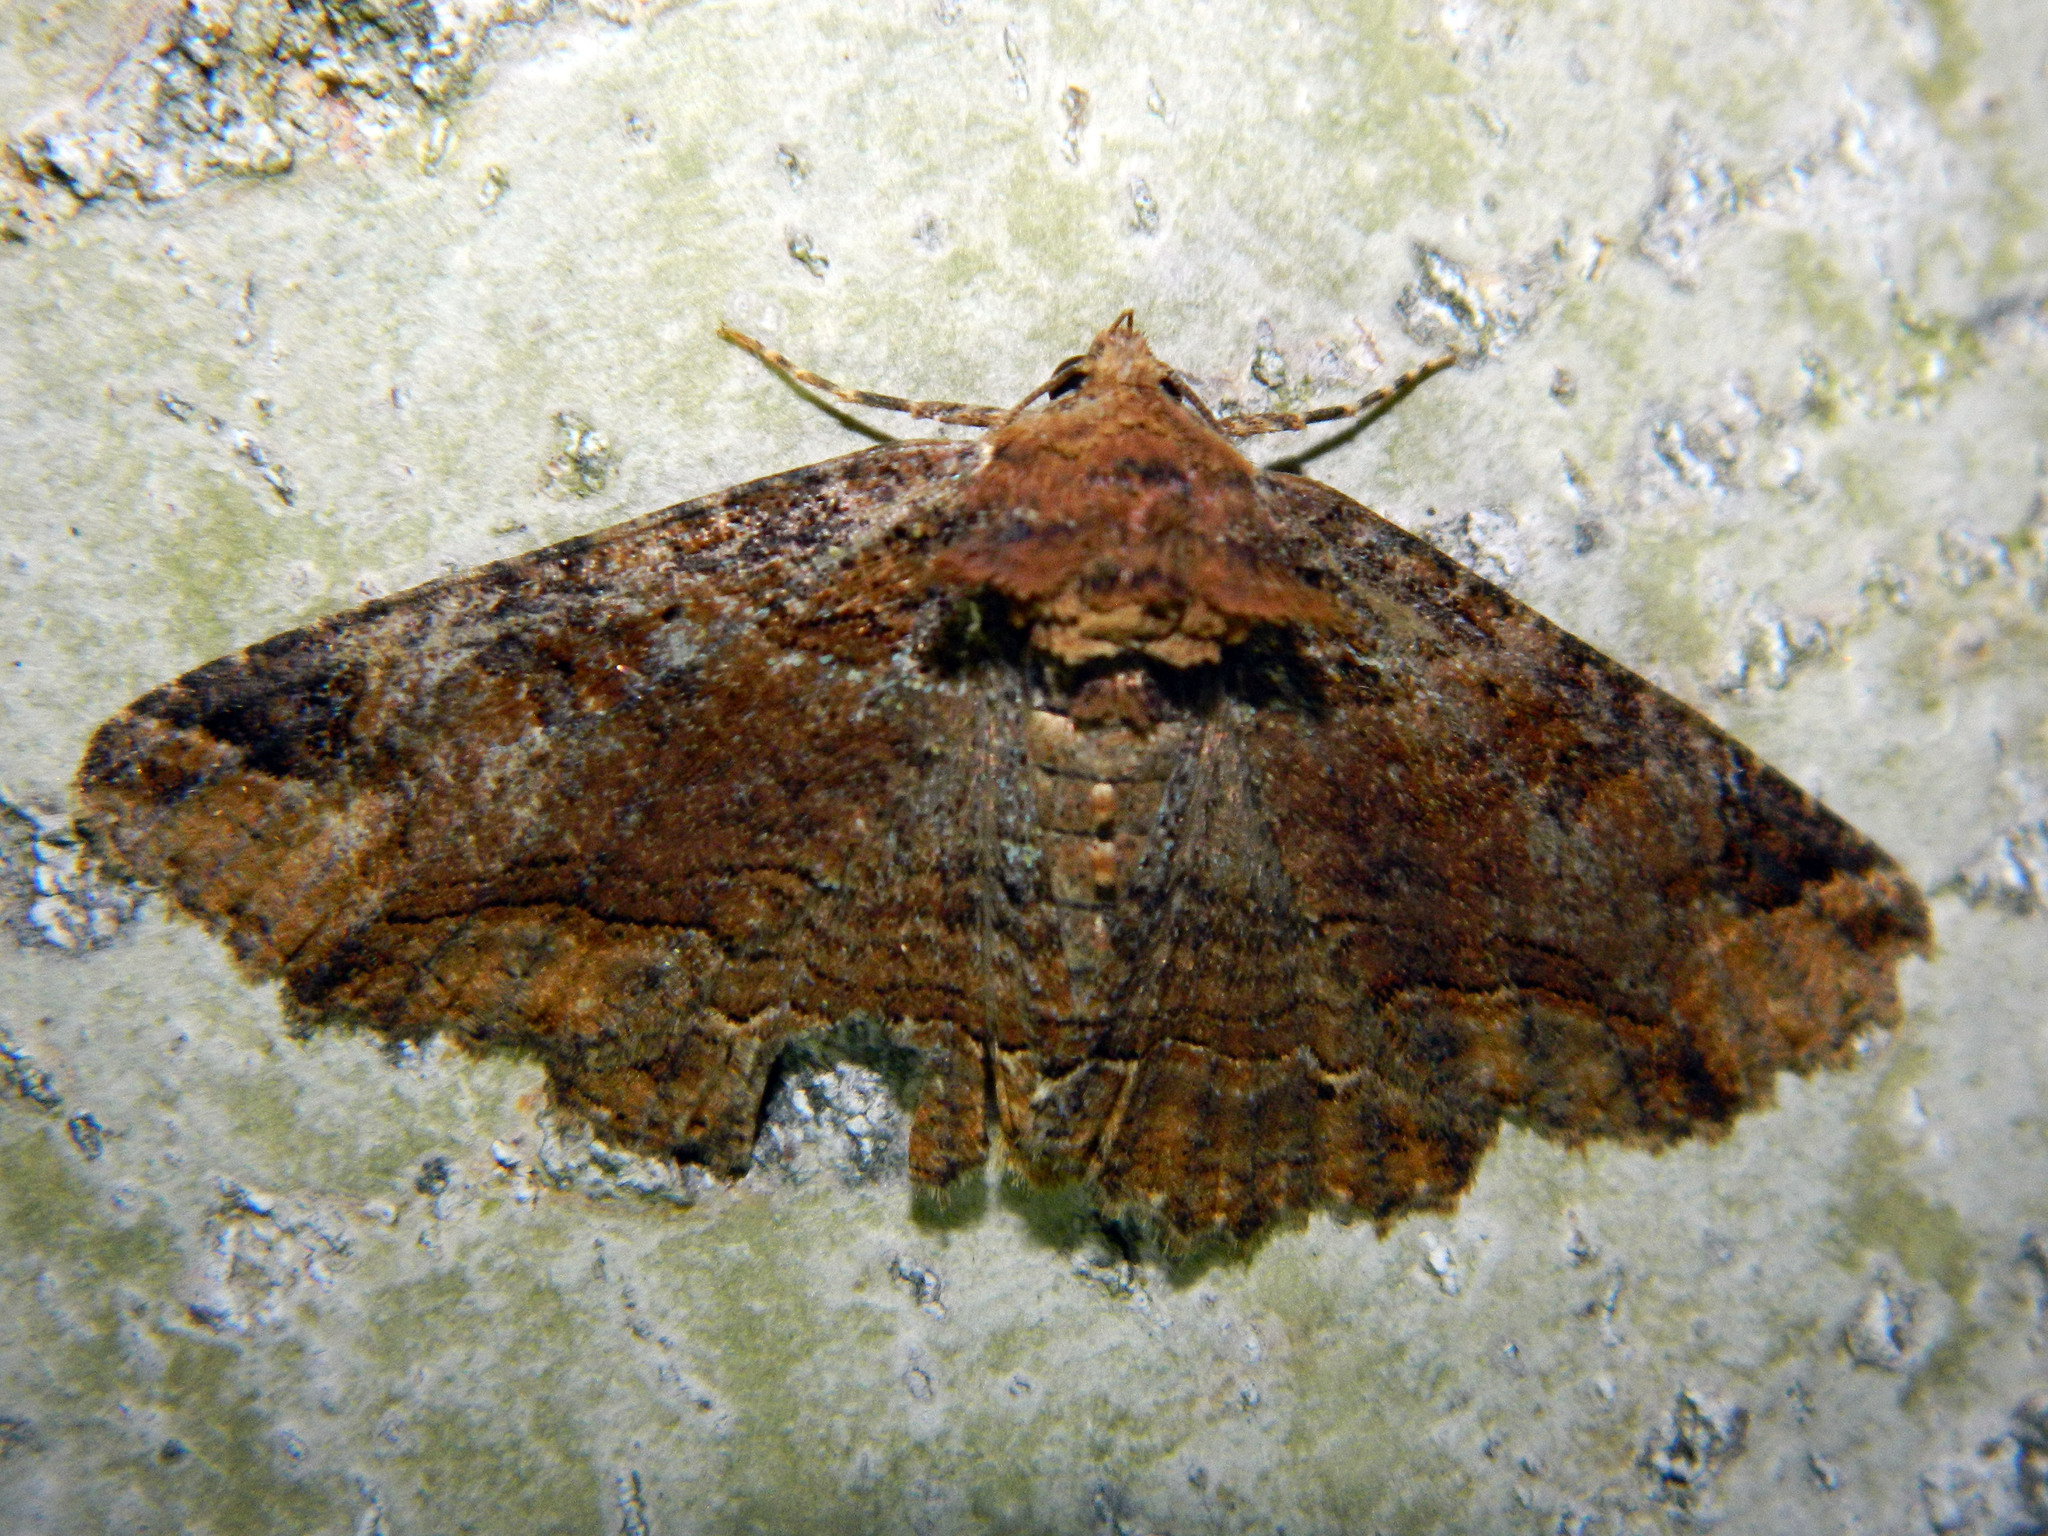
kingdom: Animalia
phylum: Arthropoda
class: Insecta
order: Lepidoptera
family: Erebidae
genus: Zale
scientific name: Zale minerea
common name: Colorful zale moth
